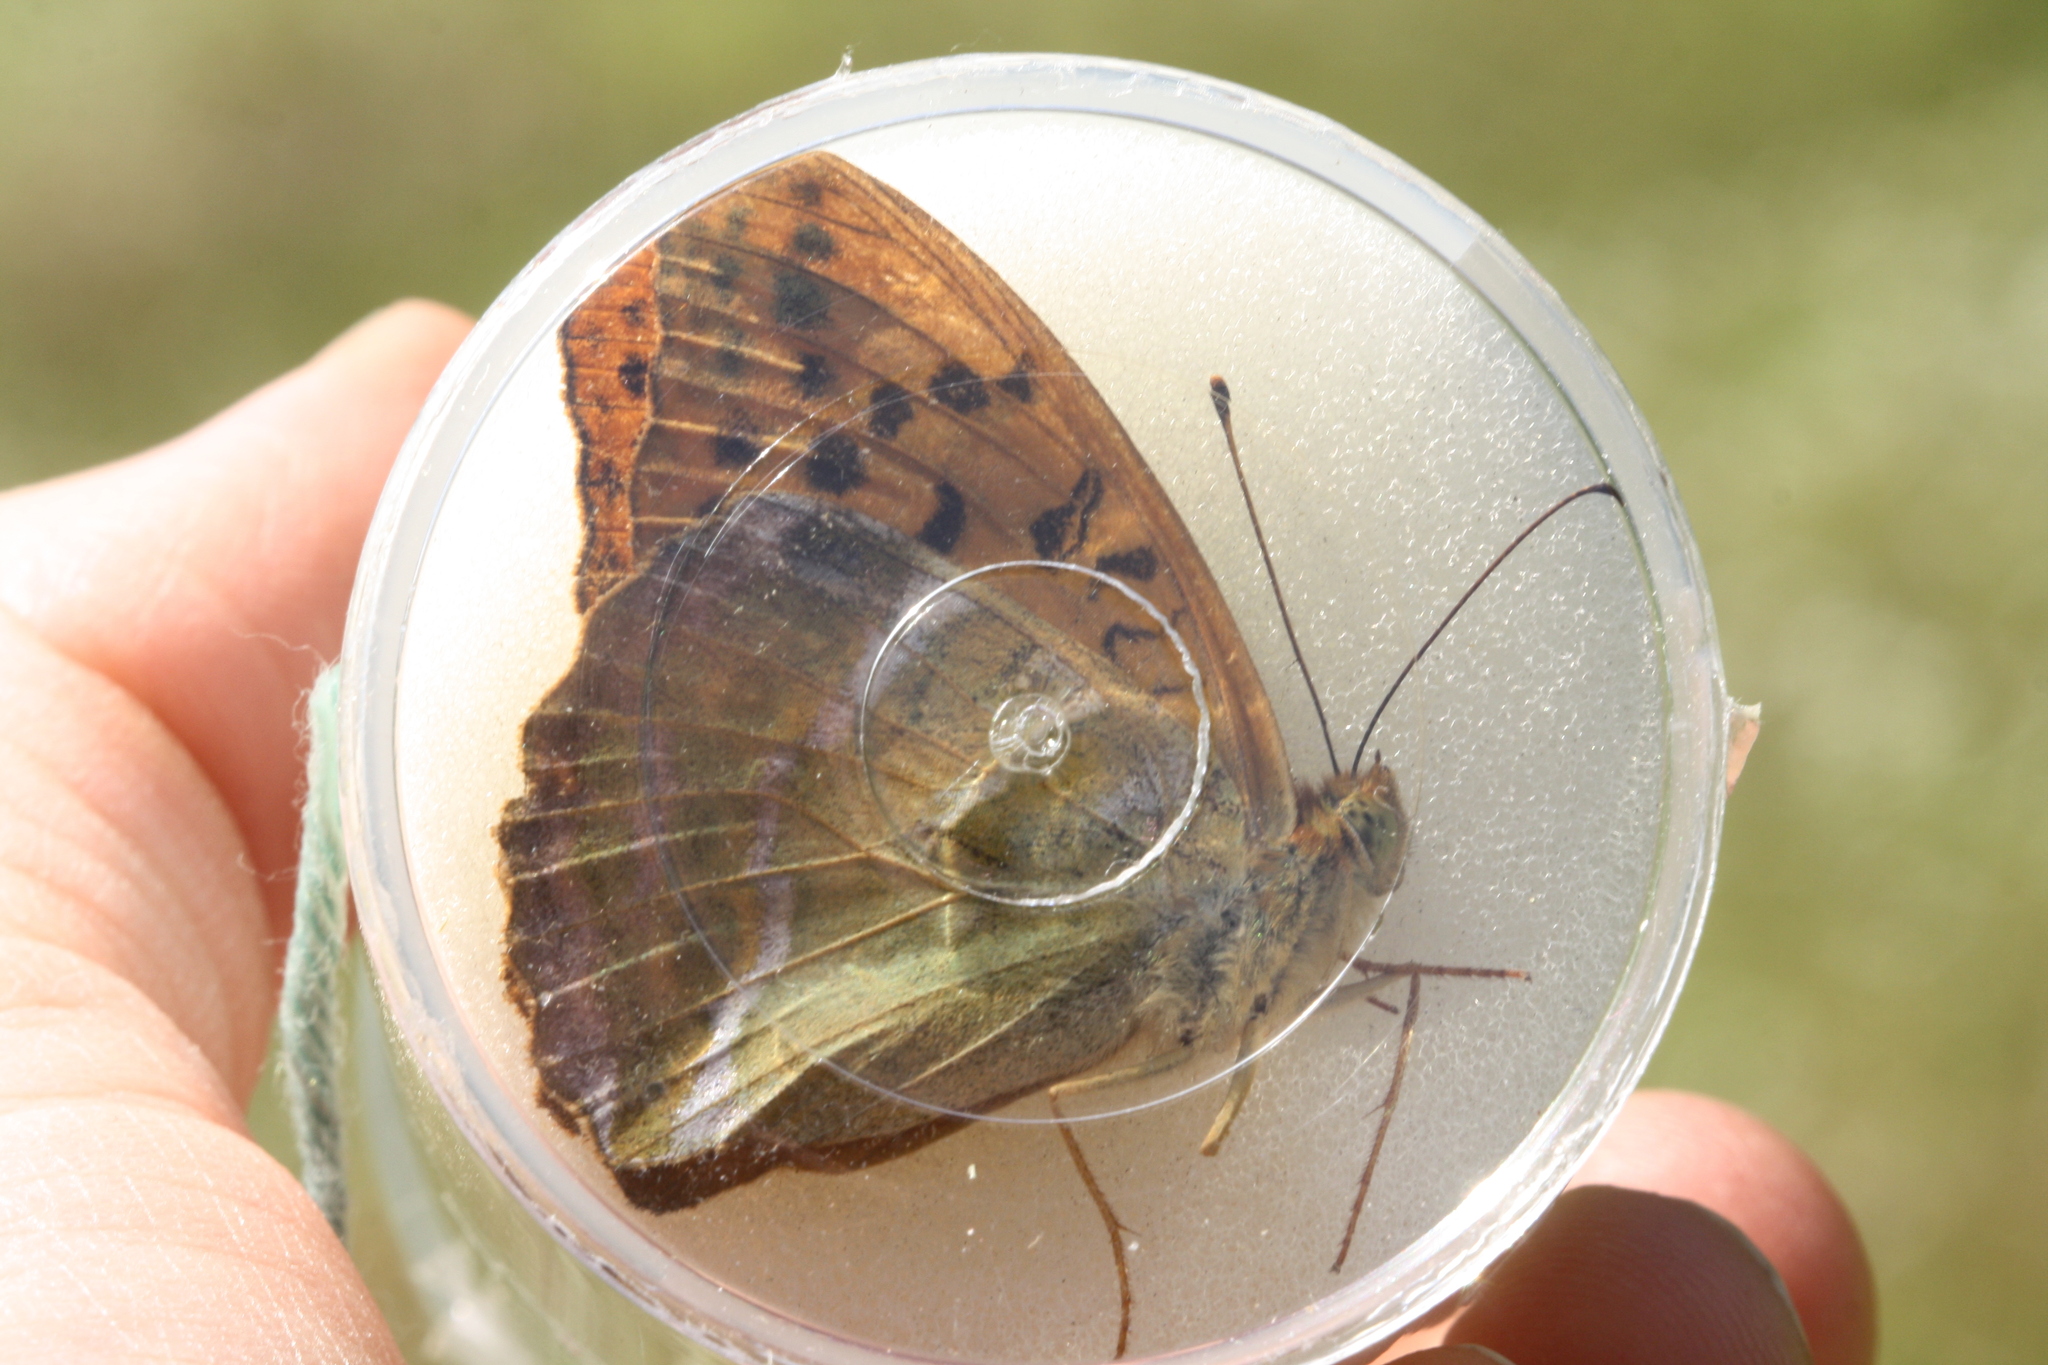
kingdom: Animalia
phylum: Arthropoda
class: Insecta
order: Lepidoptera
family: Nymphalidae
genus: Argynnis
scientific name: Argynnis paphia
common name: Silver-washed fritillary
